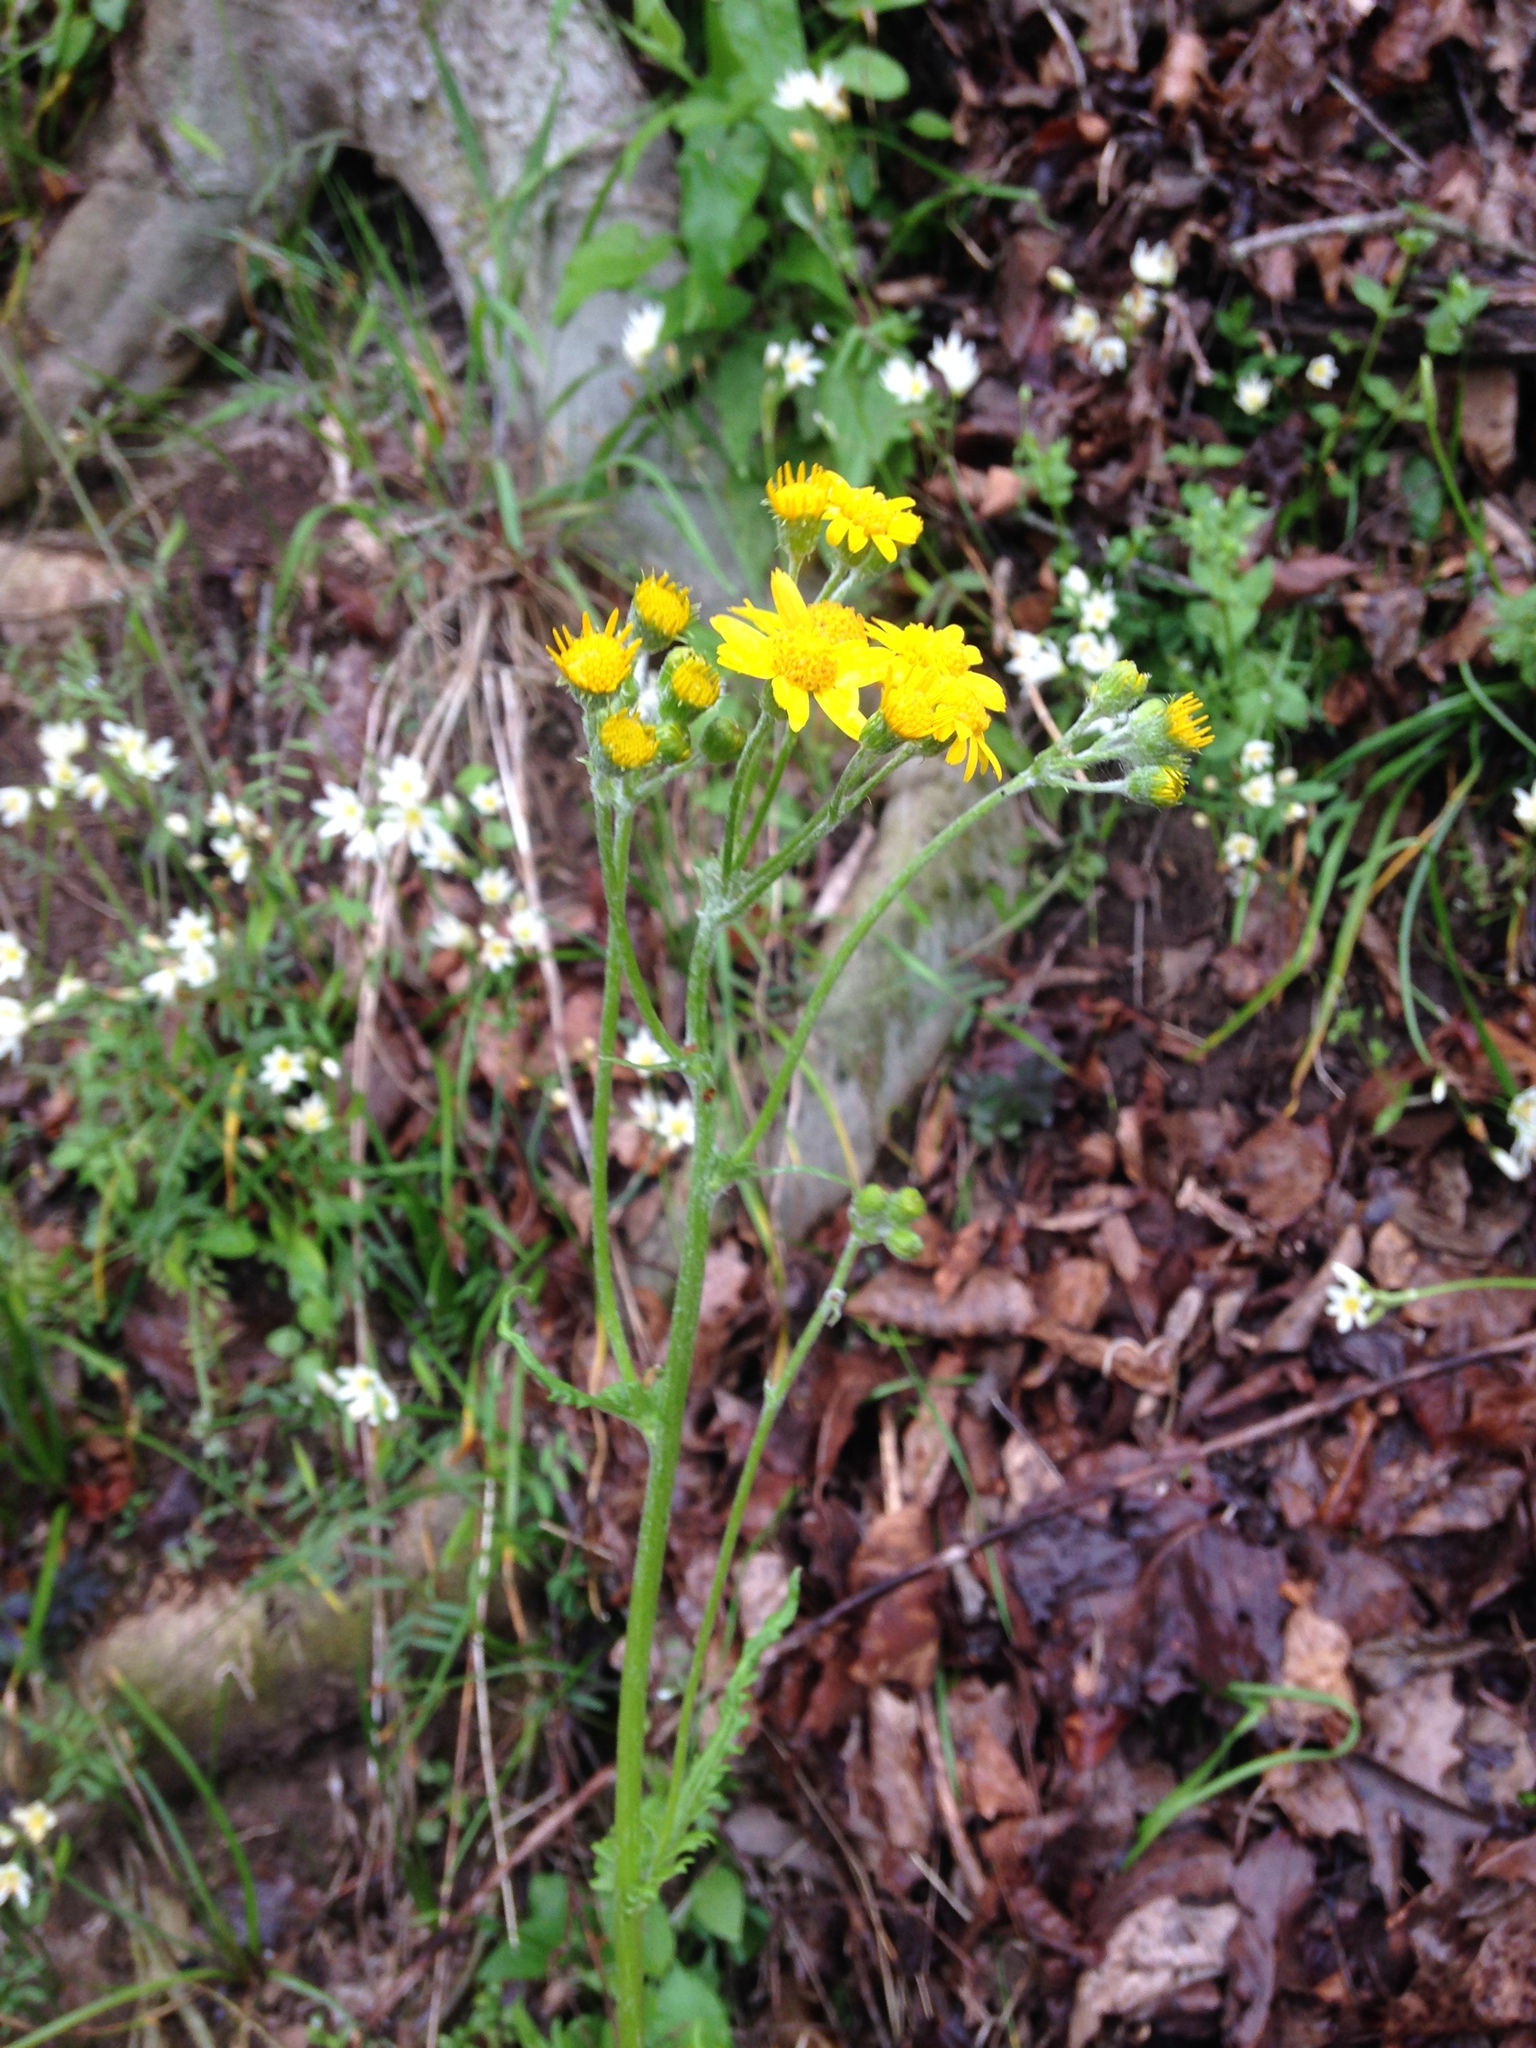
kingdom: Plantae
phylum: Tracheophyta
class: Magnoliopsida
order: Asterales
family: Asteraceae
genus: Packera
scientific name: Packera paupercula
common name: Balsam groundsel
